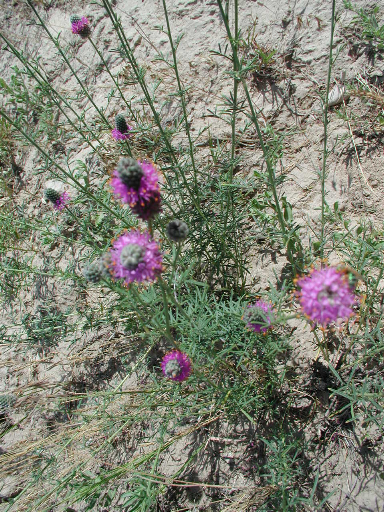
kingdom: Plantae
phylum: Tracheophyta
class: Magnoliopsida
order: Fabales
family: Fabaceae
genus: Dalea
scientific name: Dalea purpurea
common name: Purple prairie-clover
